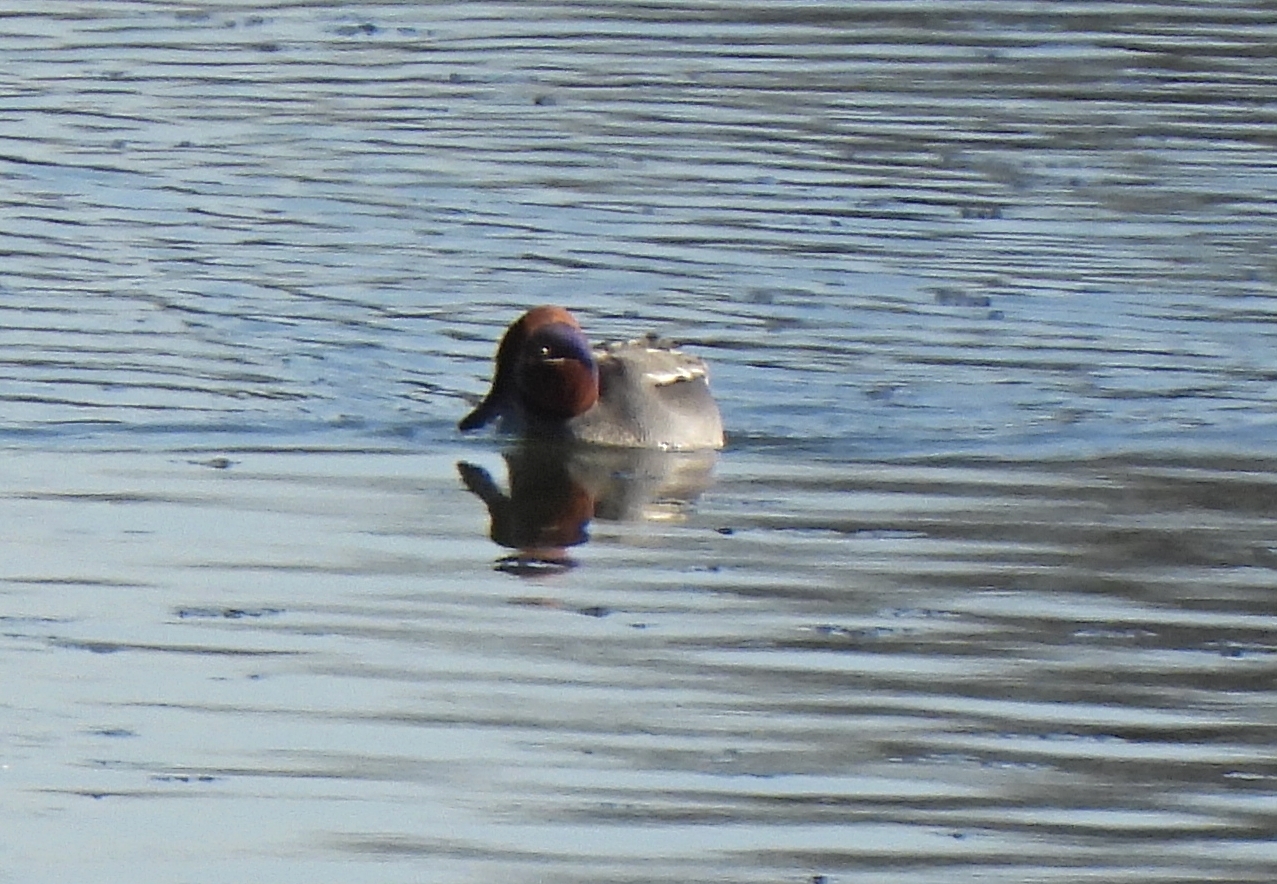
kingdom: Animalia
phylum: Chordata
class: Aves
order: Anseriformes
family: Anatidae
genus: Anas
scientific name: Anas crecca
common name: Eurasian teal
